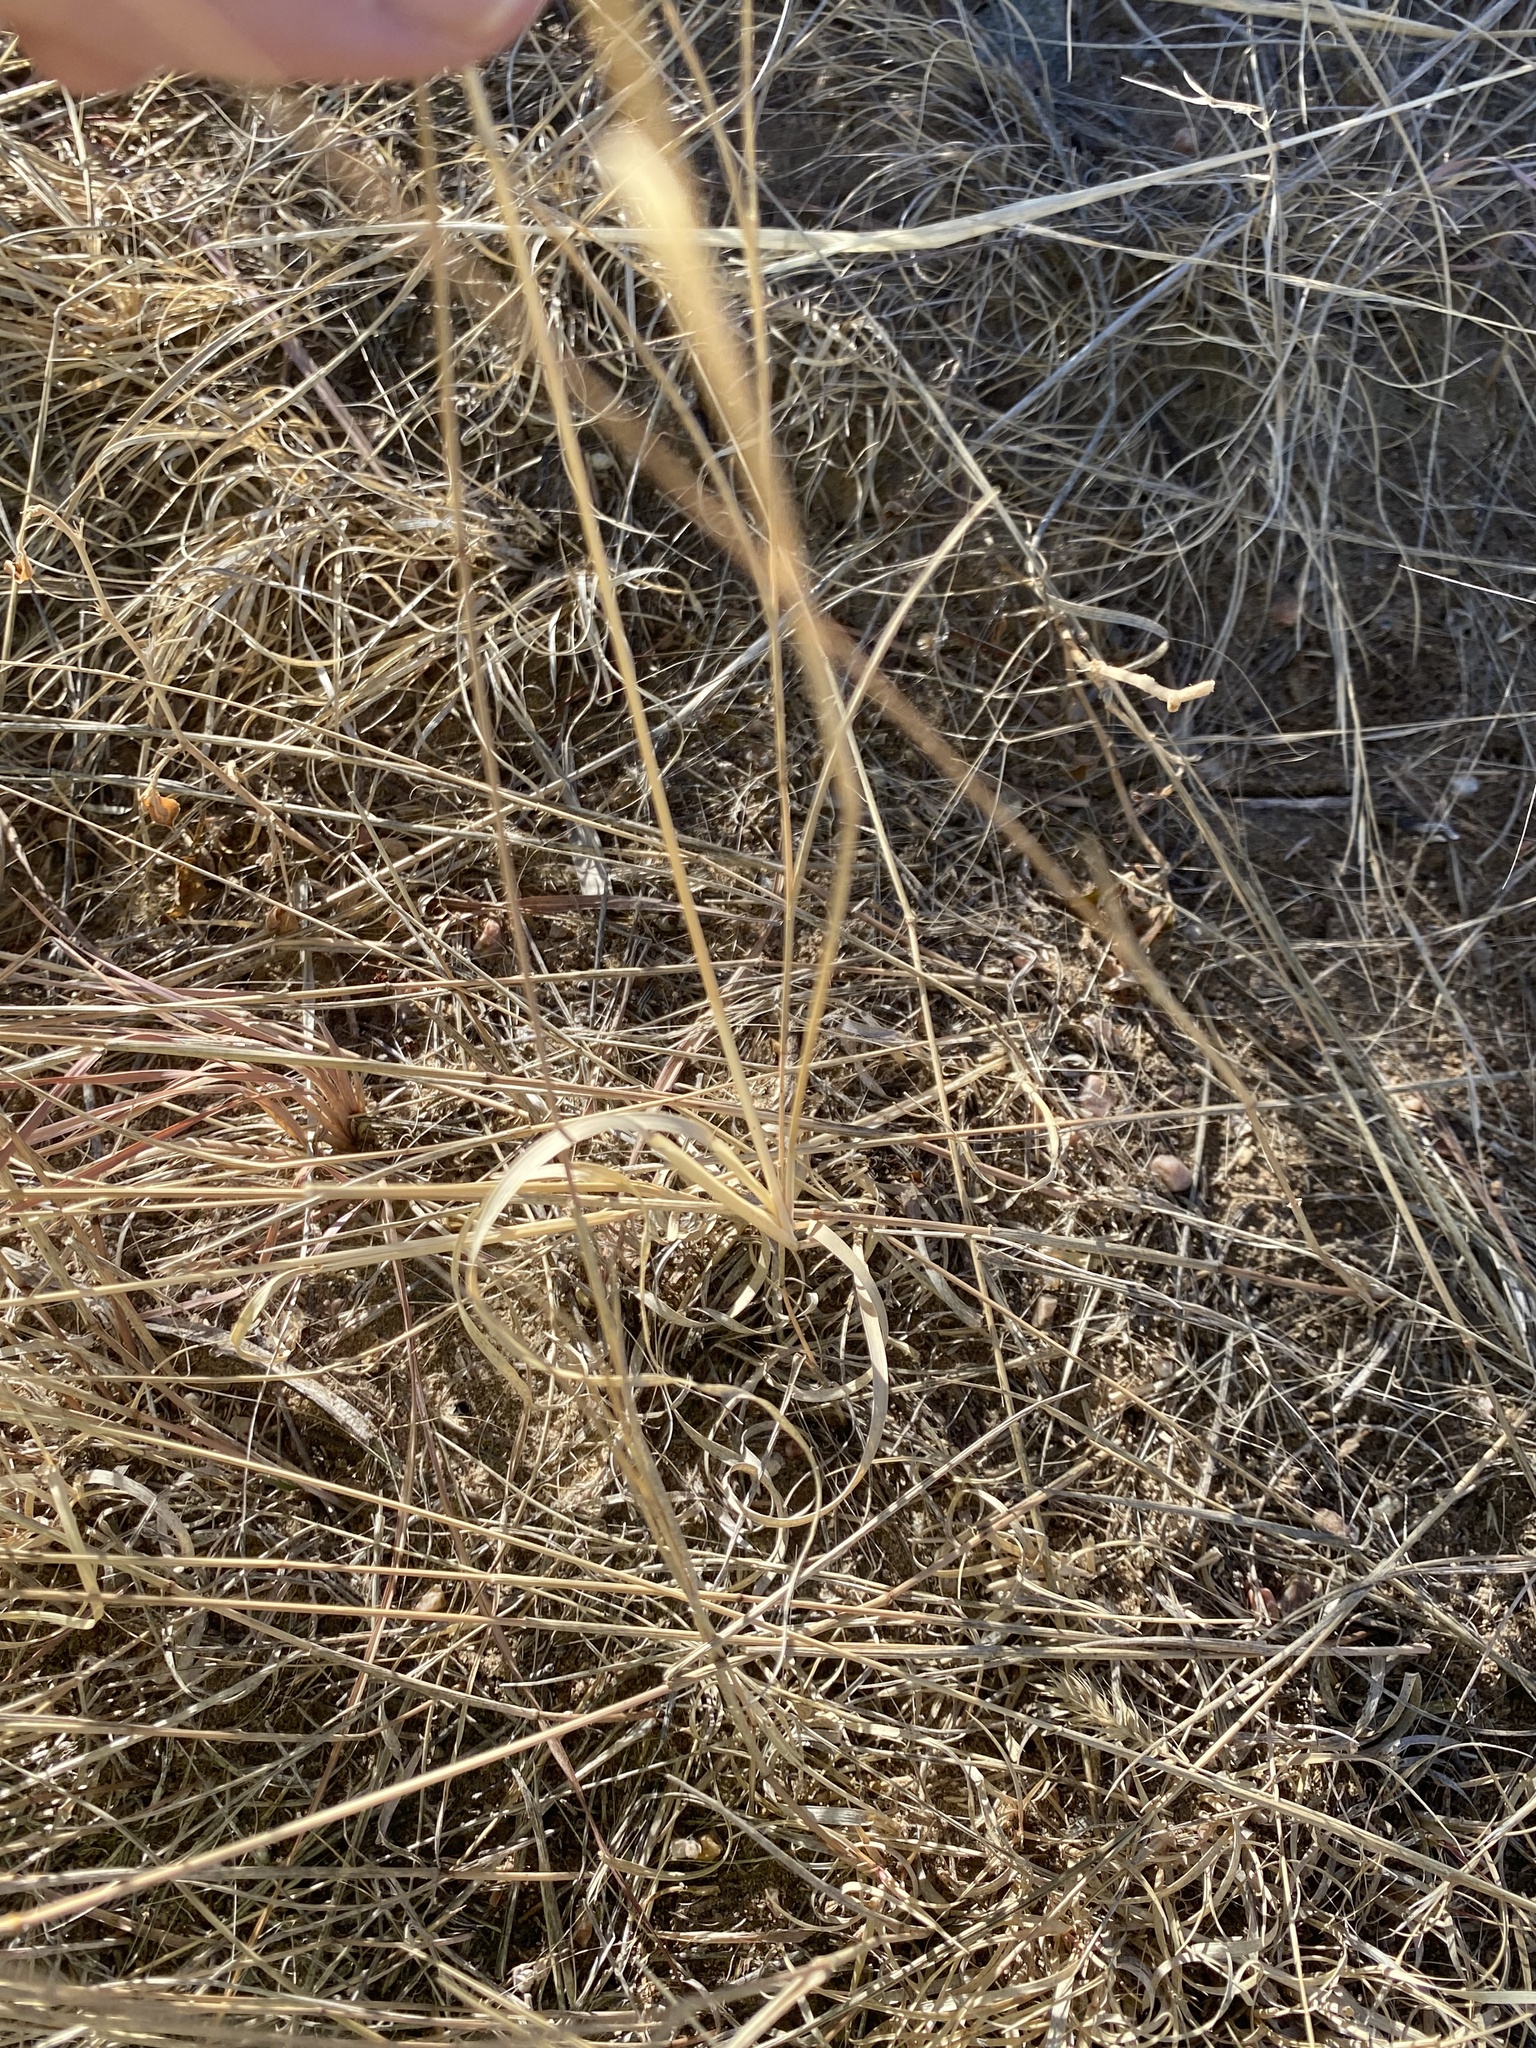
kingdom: Plantae
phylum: Tracheophyta
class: Liliopsida
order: Poales
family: Poaceae
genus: Bouteloua
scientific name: Bouteloua gracilis
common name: Blue grama
